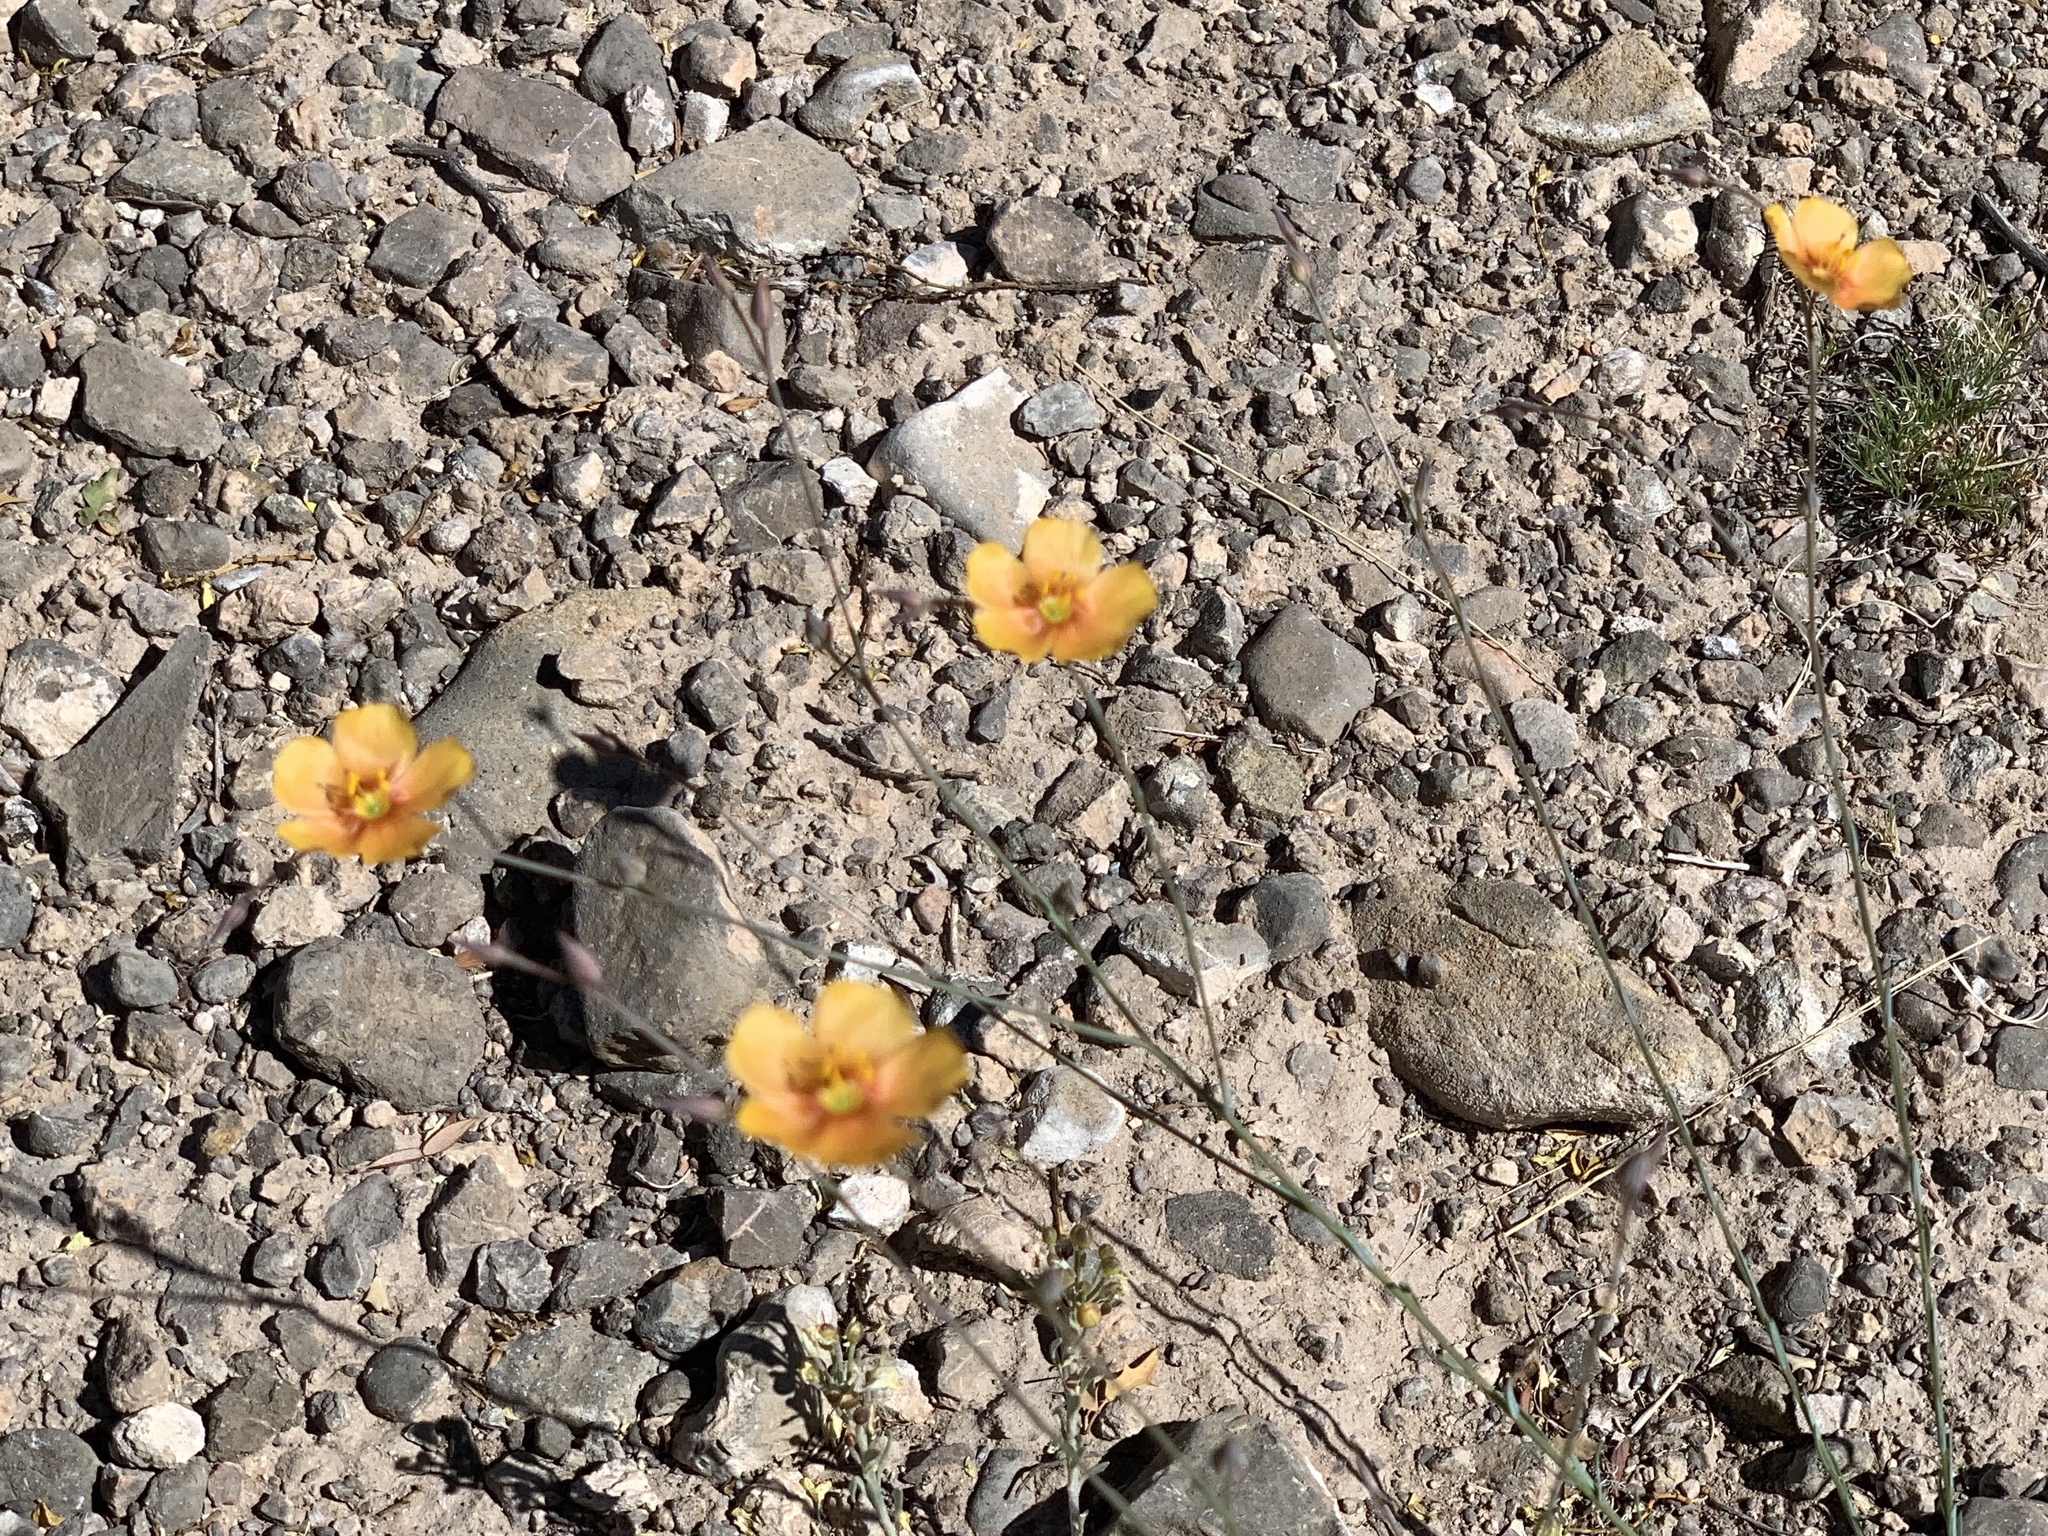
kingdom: Plantae
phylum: Tracheophyta
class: Magnoliopsida
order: Malpighiales
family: Linaceae
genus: Linum
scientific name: Linum berlandieri
